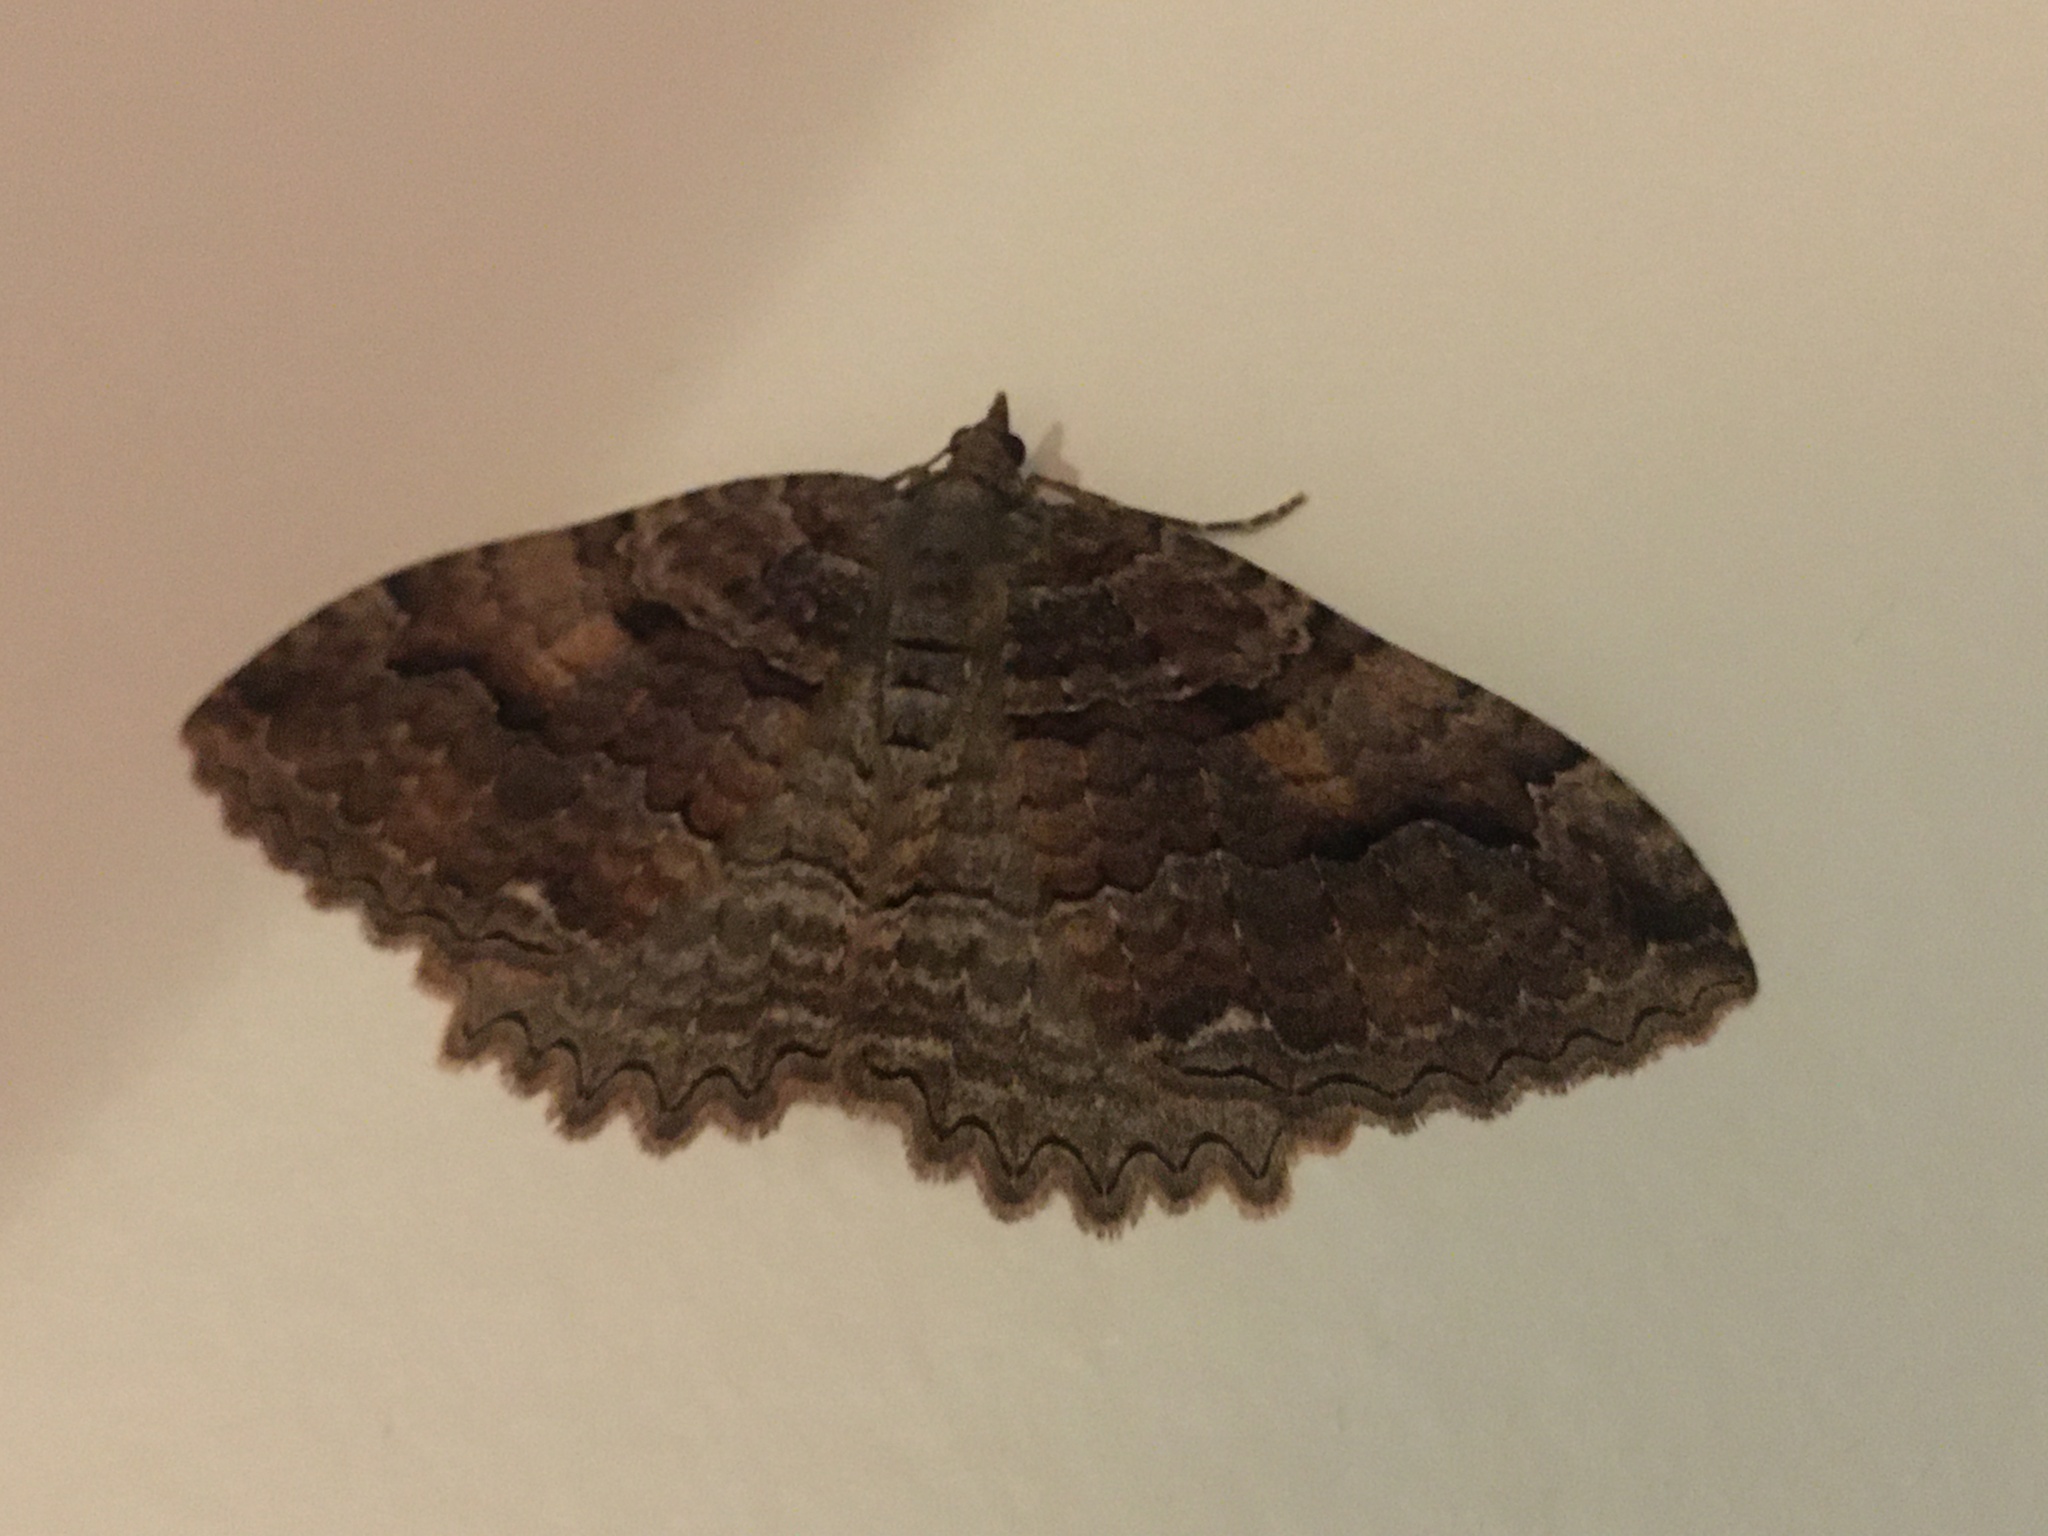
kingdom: Animalia
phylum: Arthropoda
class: Insecta
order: Lepidoptera
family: Geometridae
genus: Triphosa
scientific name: Triphosa haesitata
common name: Tissue moth
